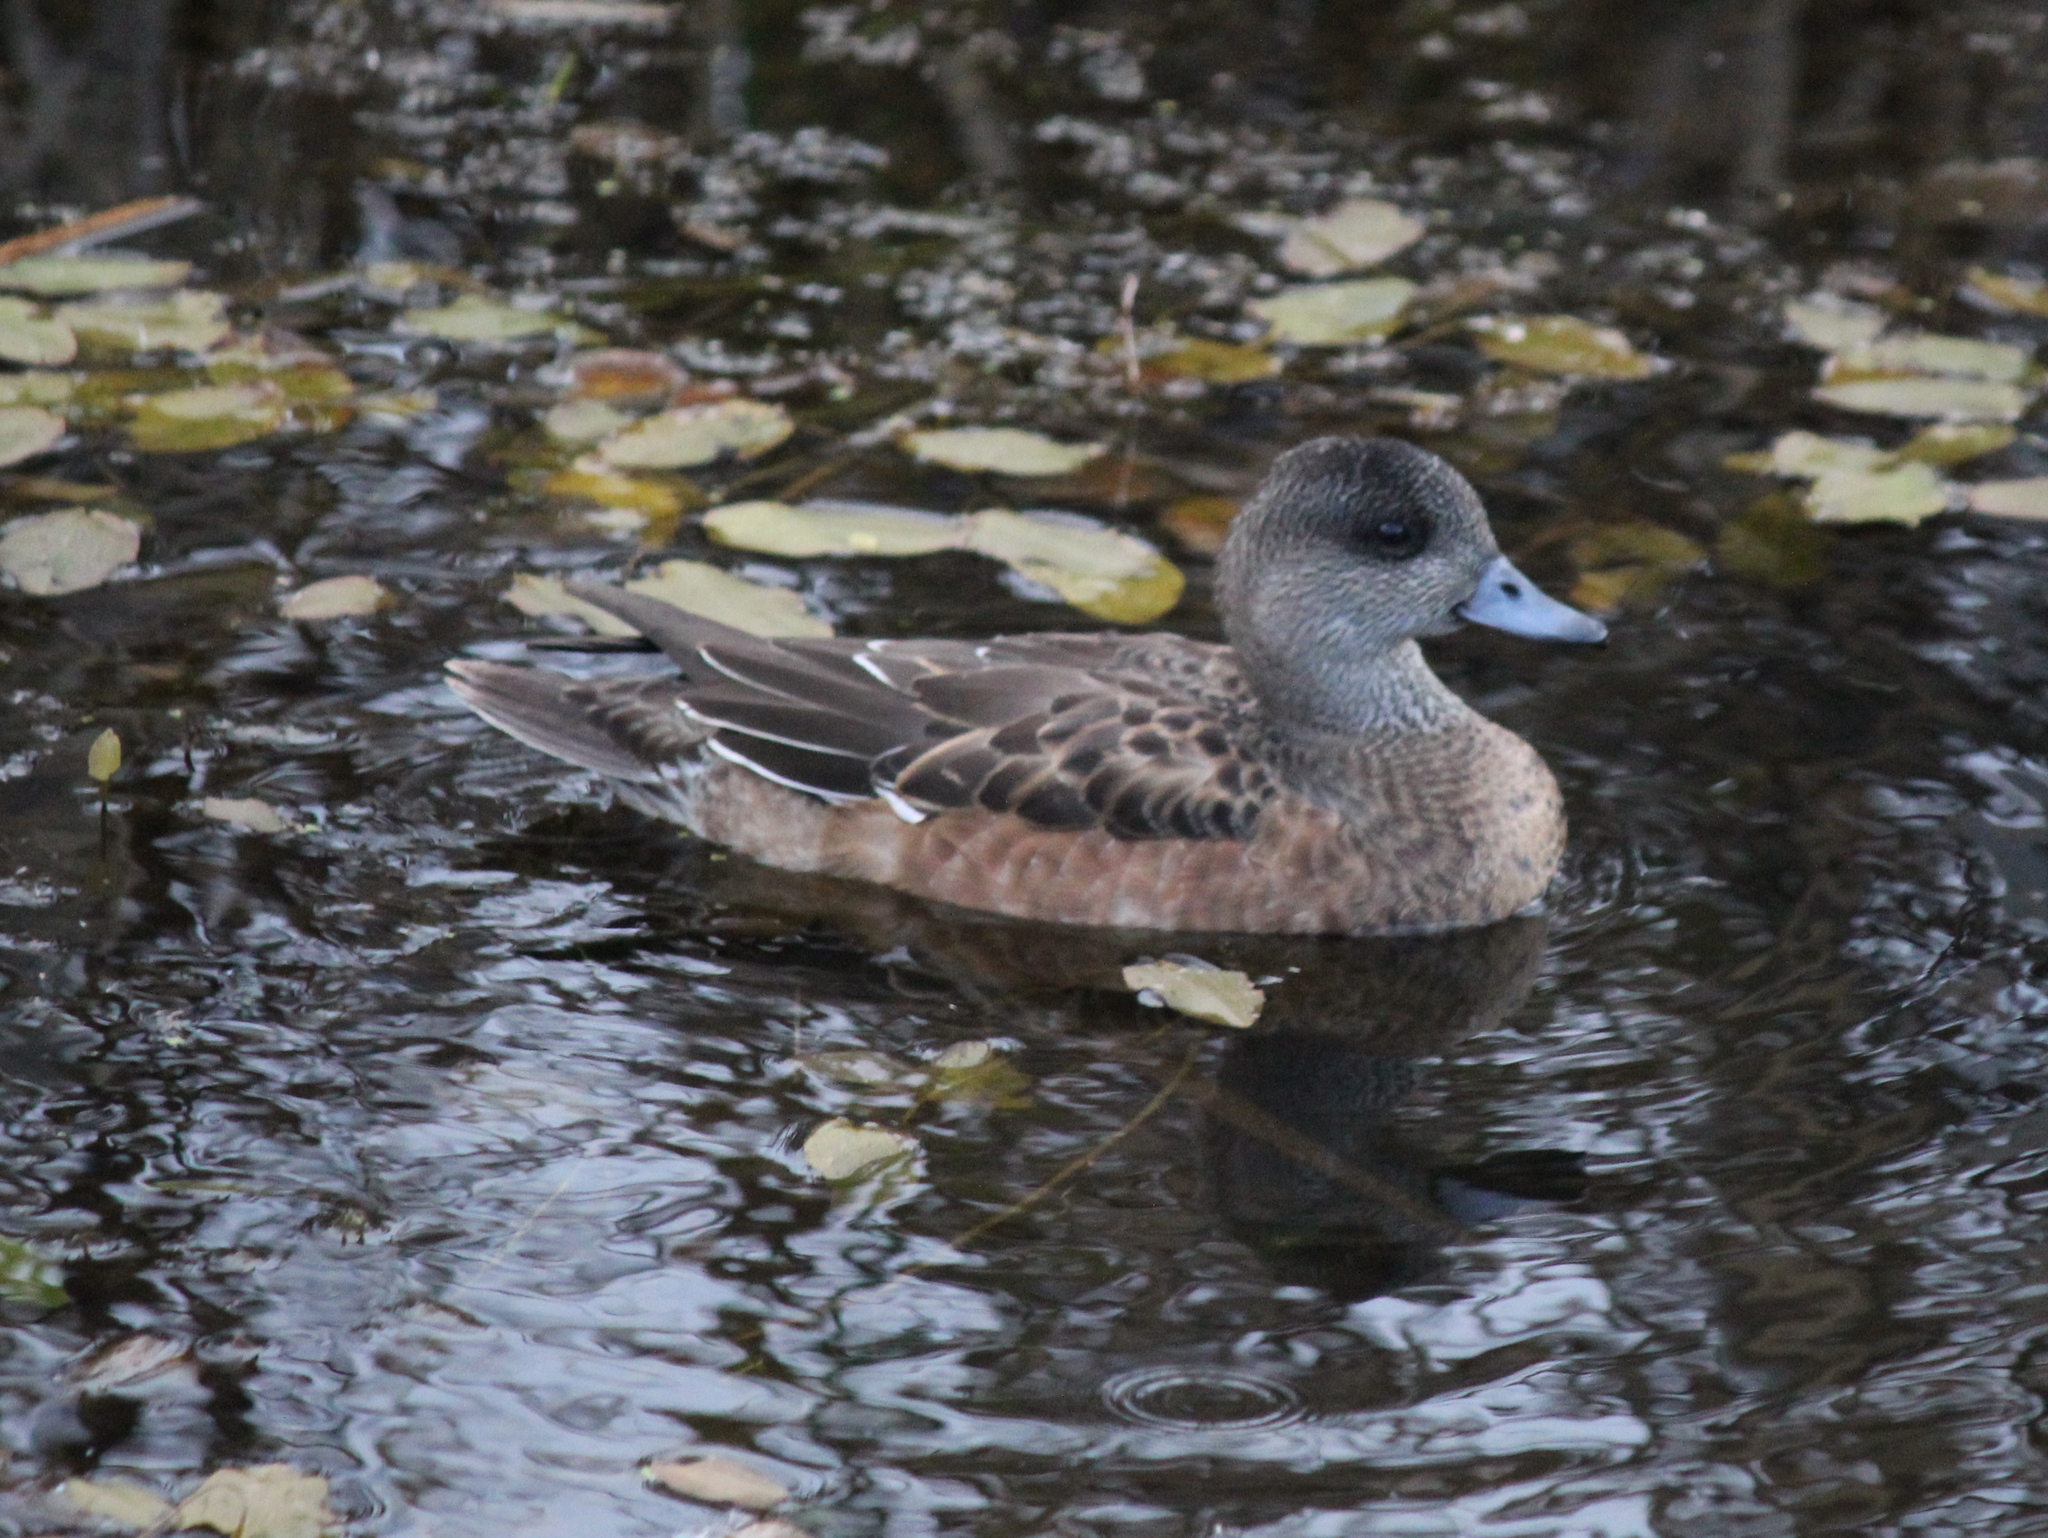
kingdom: Animalia
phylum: Chordata
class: Aves
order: Anseriformes
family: Anatidae
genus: Mareca
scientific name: Mareca americana
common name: American wigeon
